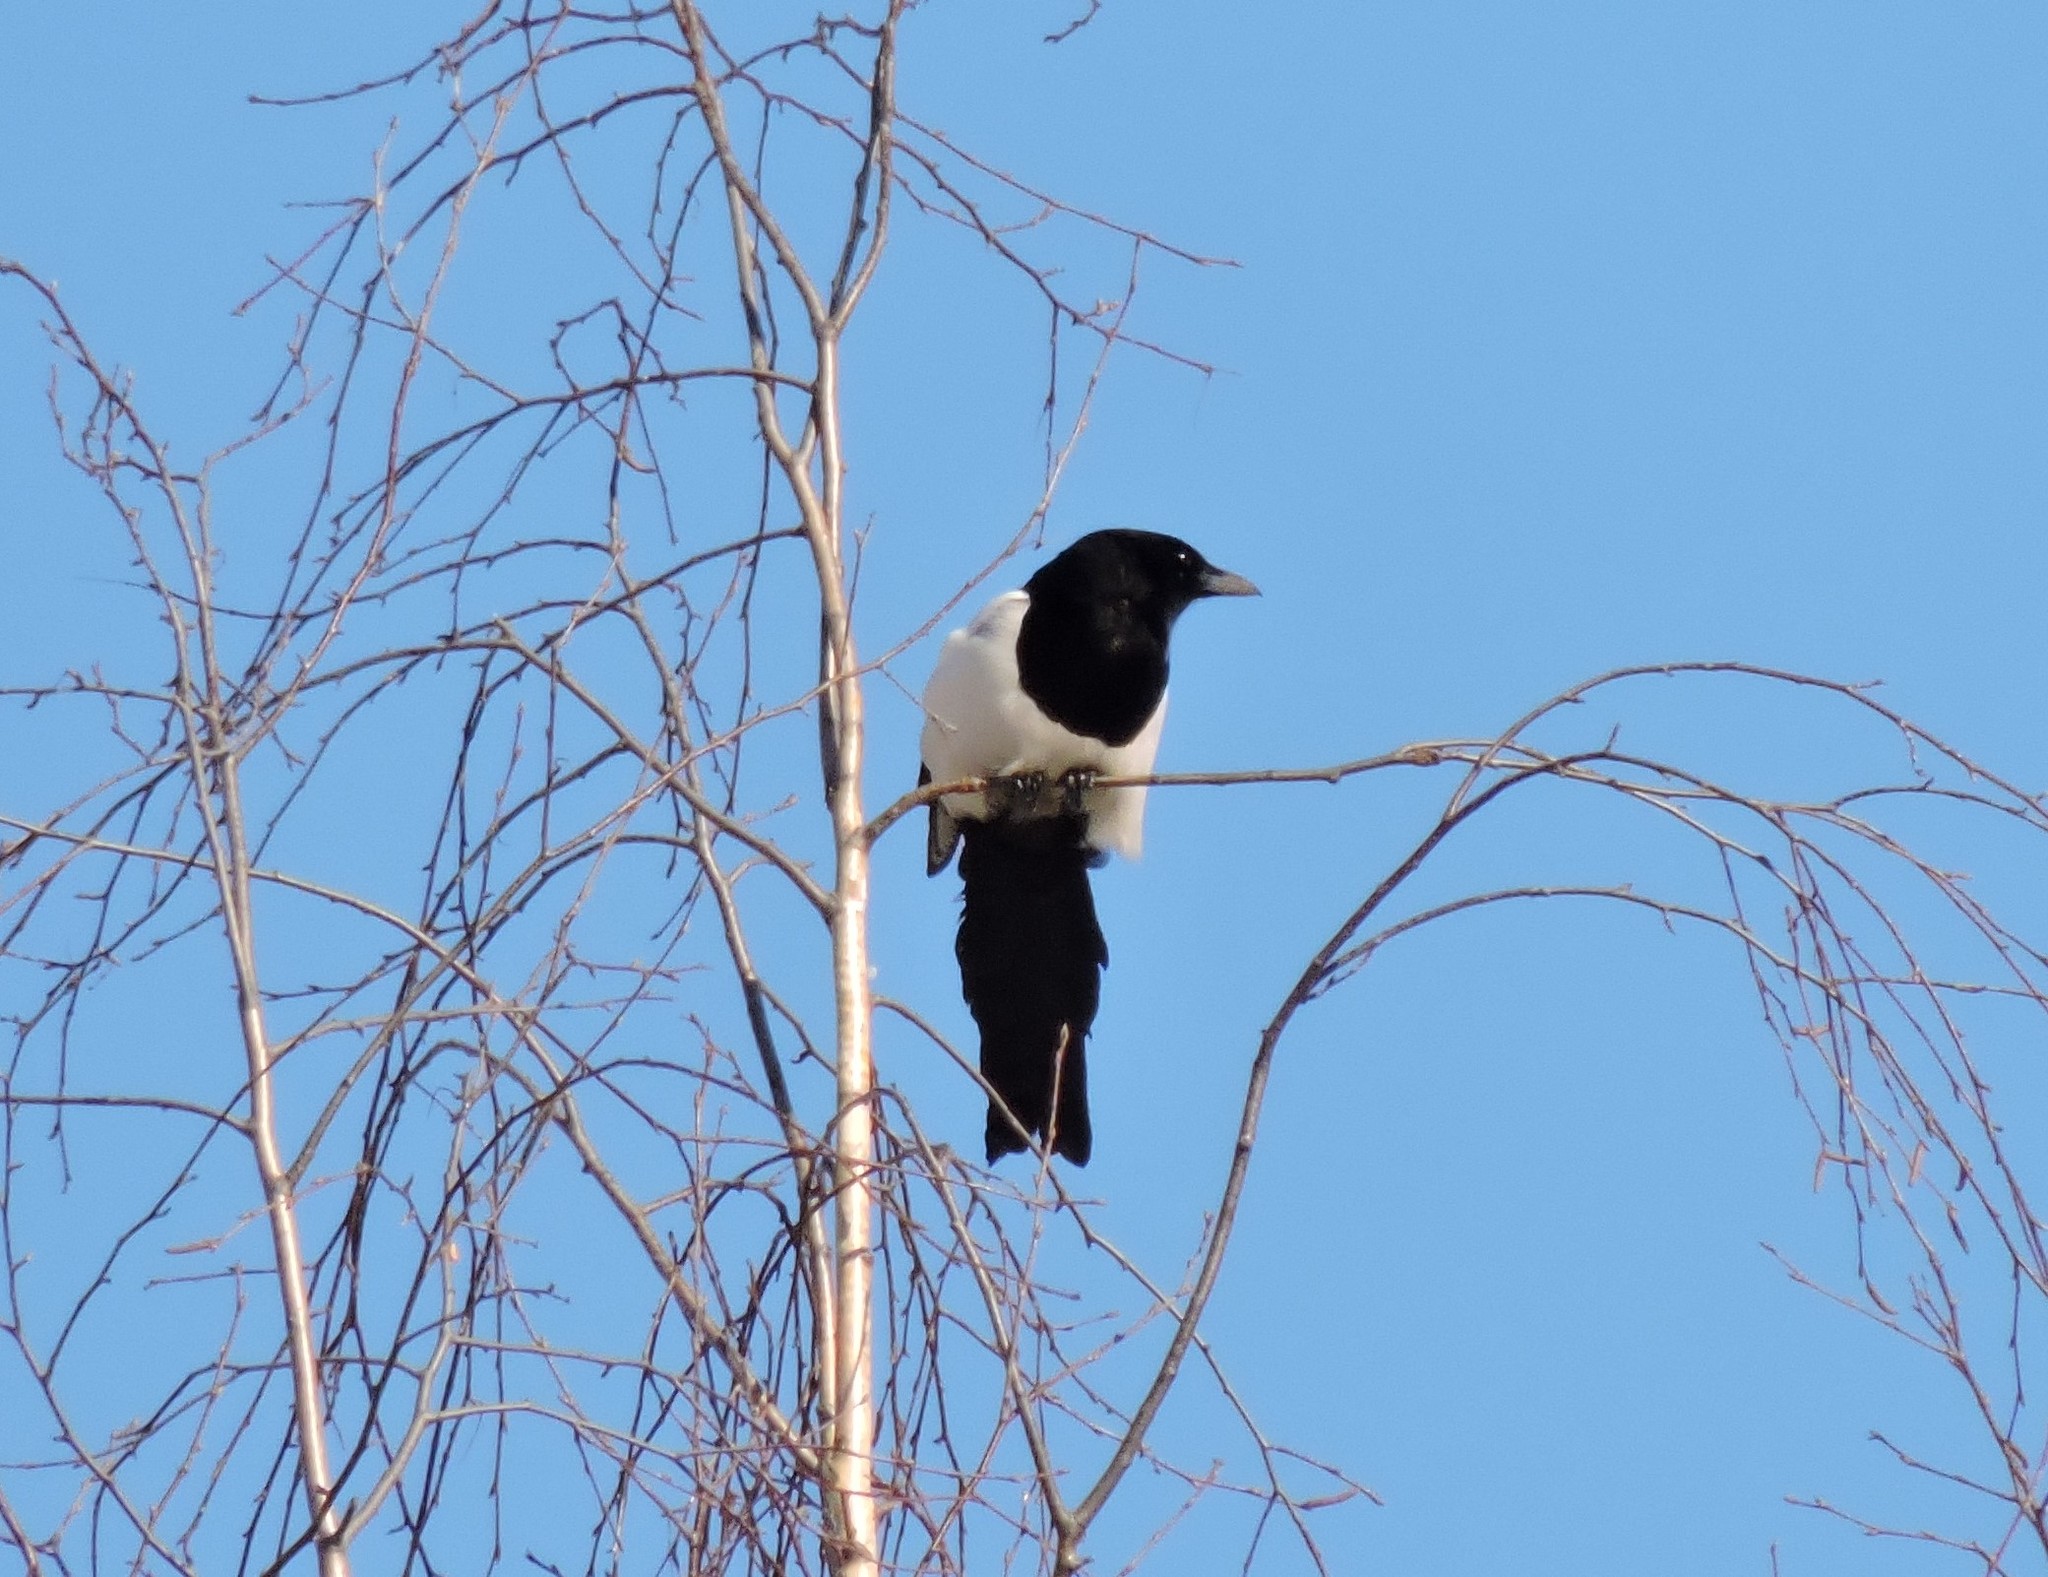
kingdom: Animalia
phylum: Chordata
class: Aves
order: Passeriformes
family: Corvidae
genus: Pica
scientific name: Pica pica
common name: Eurasian magpie
